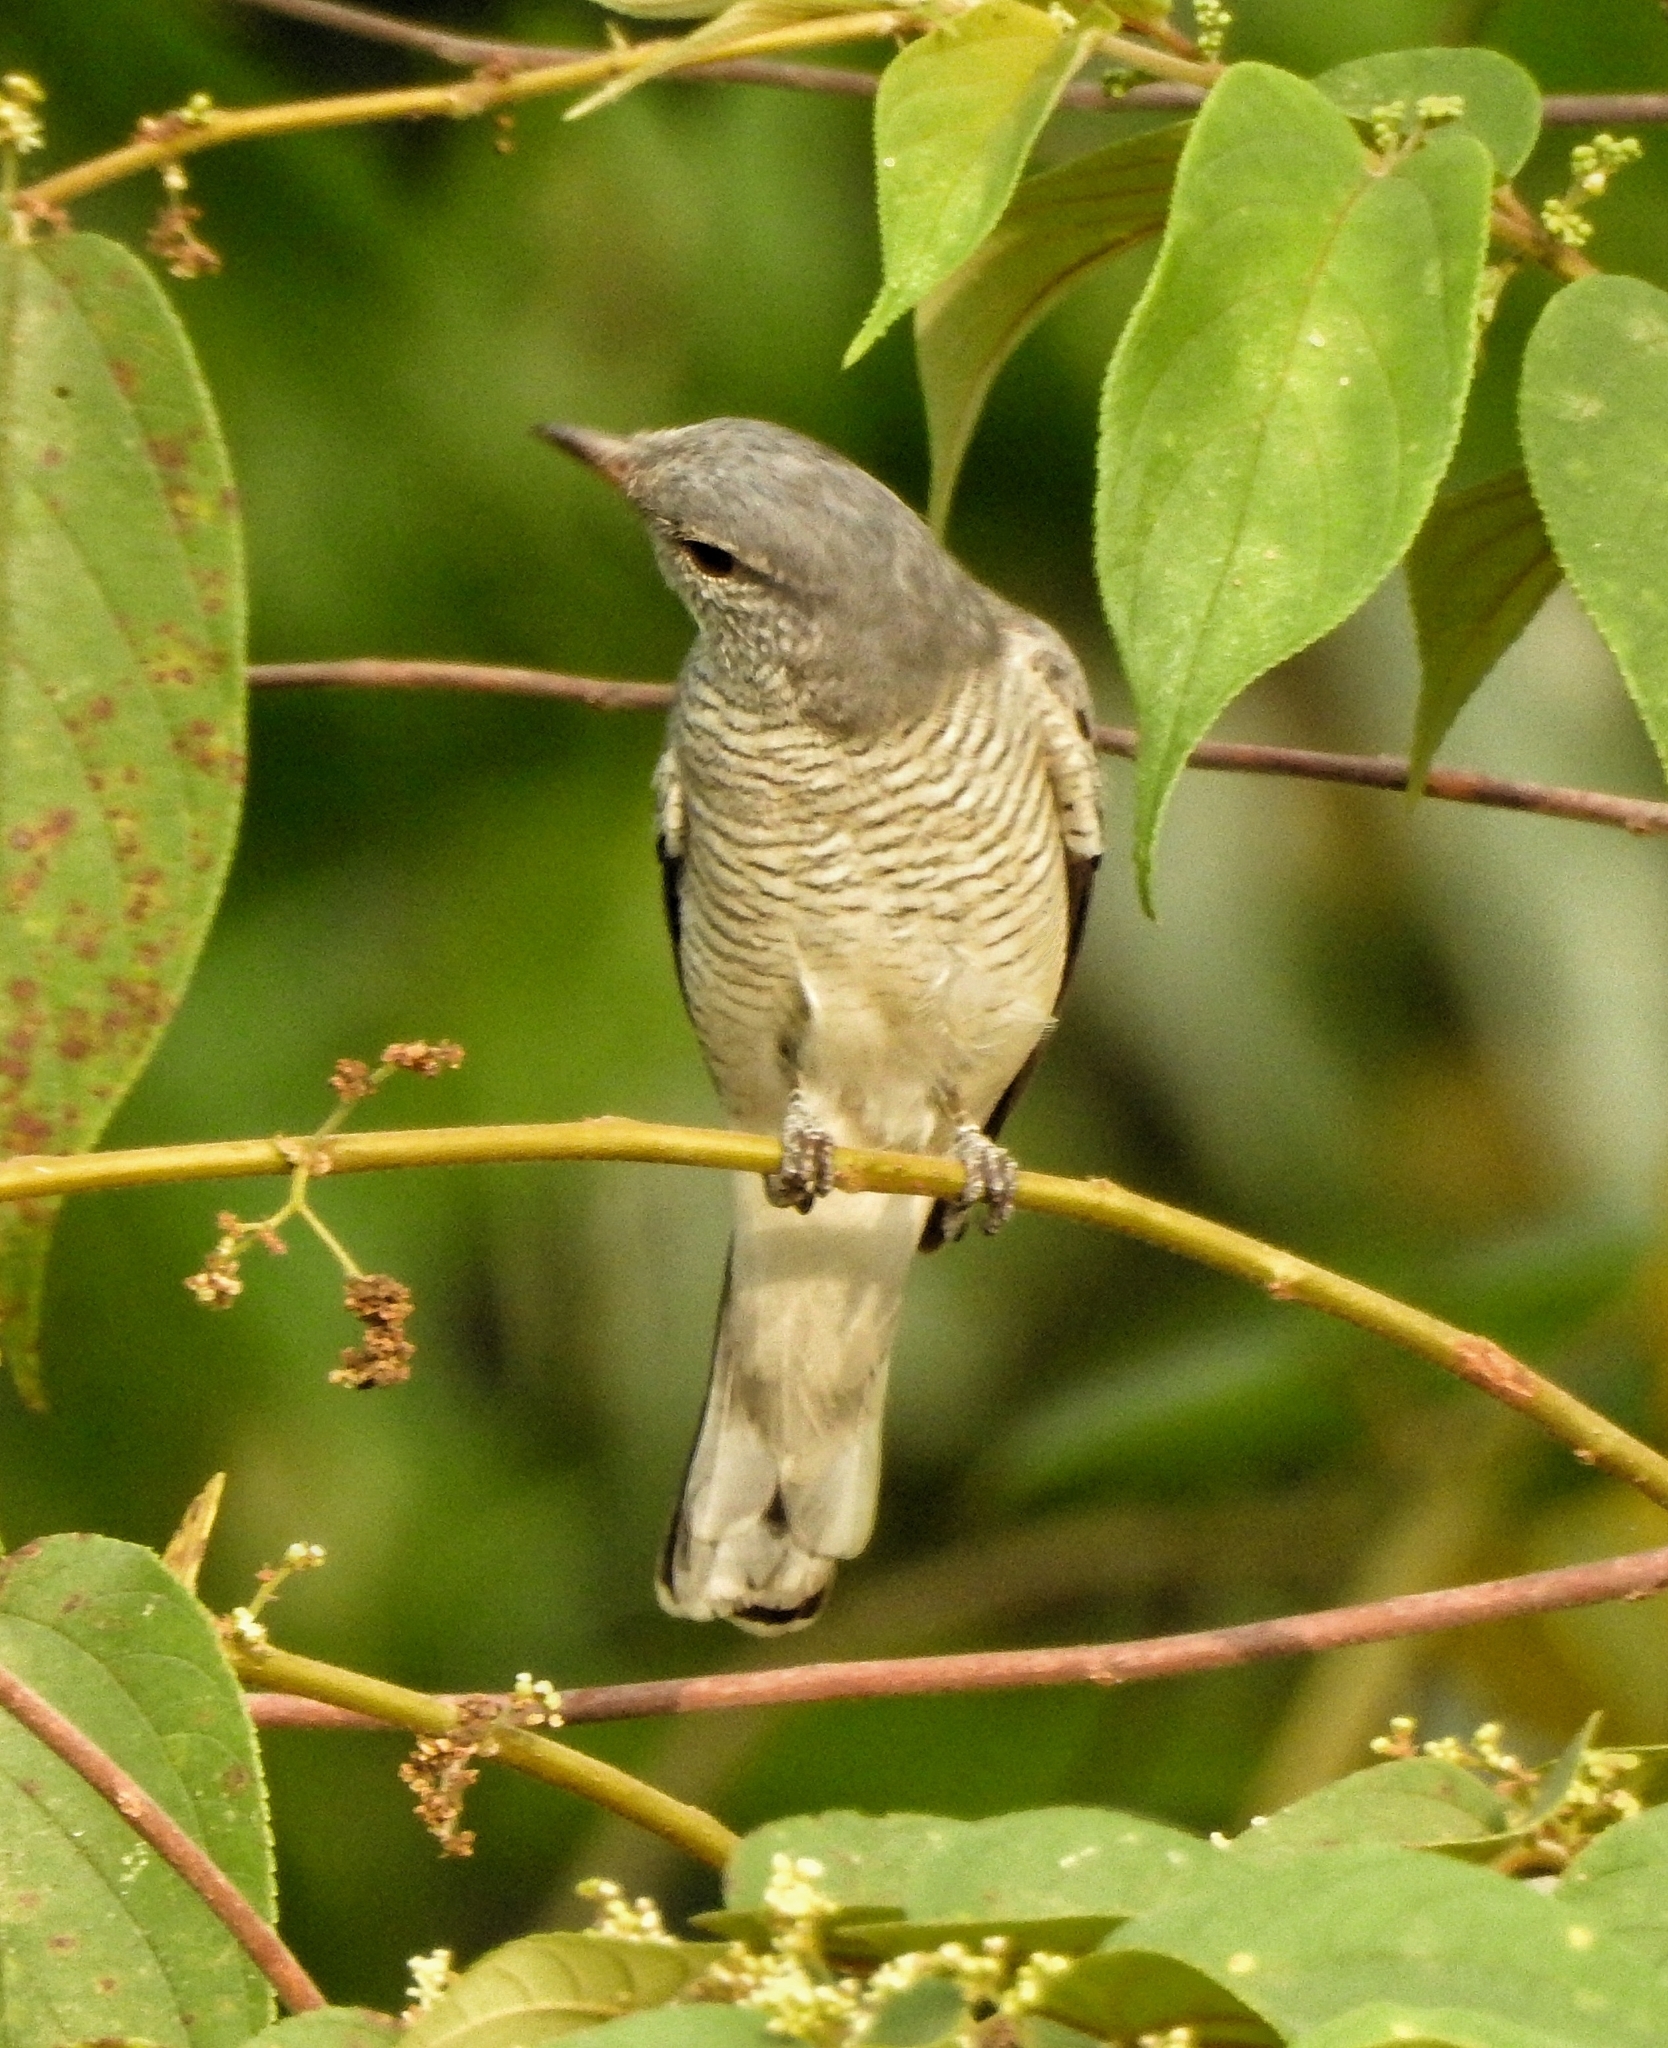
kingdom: Animalia
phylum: Chordata
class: Aves
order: Passeriformes
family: Campephagidae
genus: Coracina
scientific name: Coracina melanoptera
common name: Black-headed cuckooshrike
